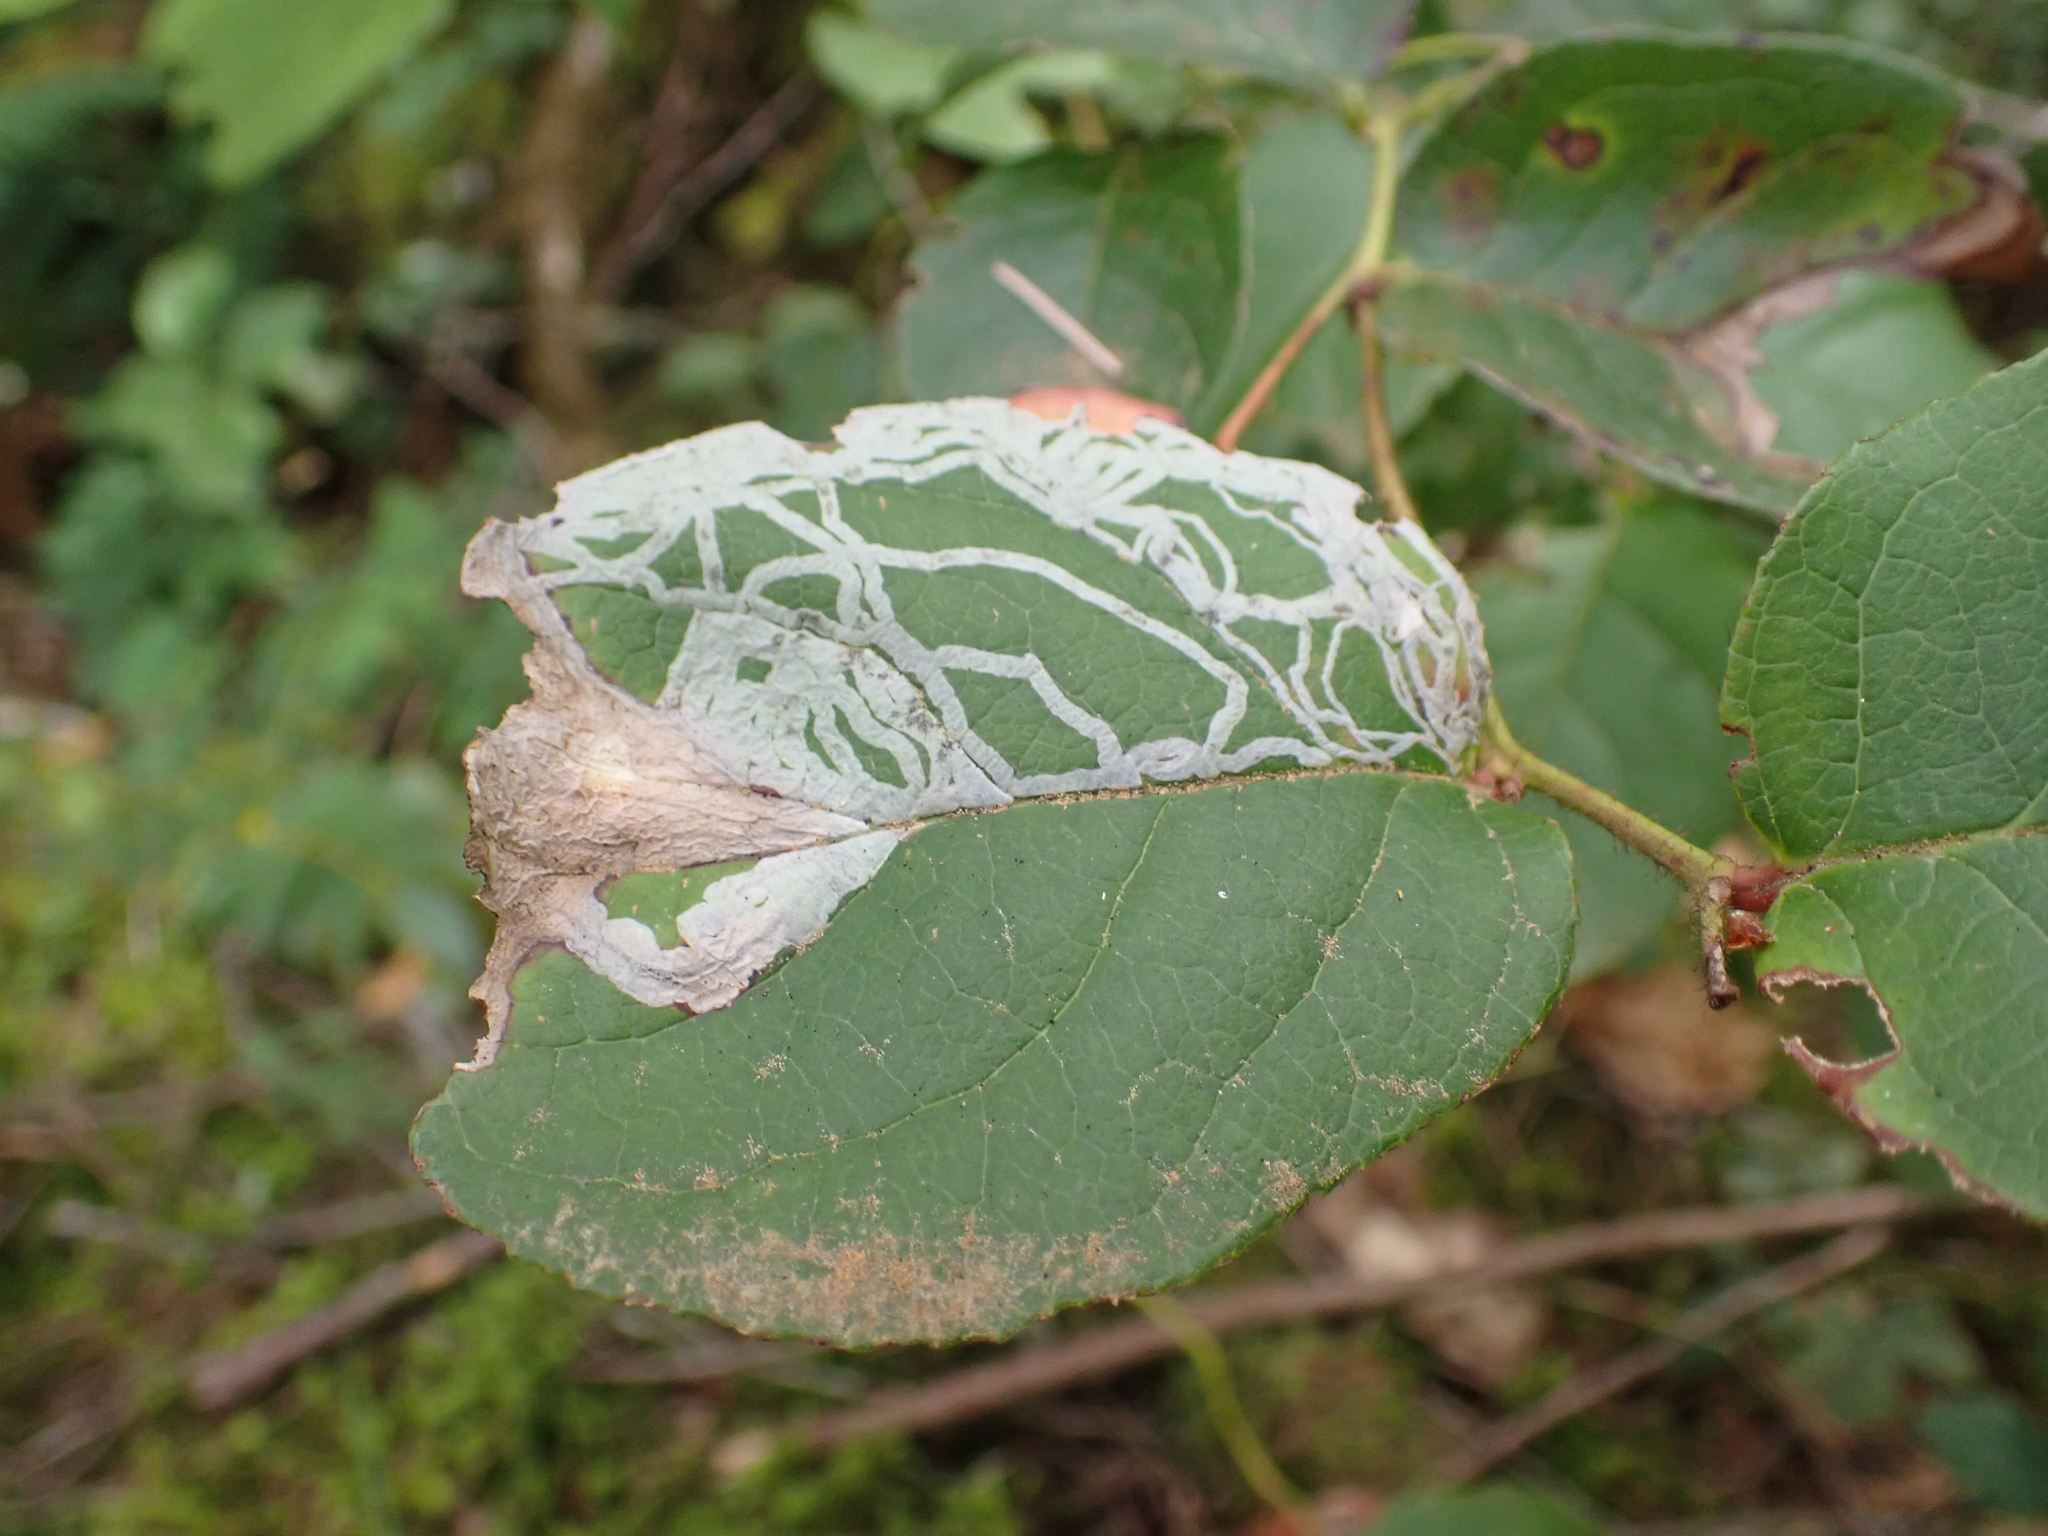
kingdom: Animalia
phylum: Arthropoda
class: Insecta
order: Lepidoptera
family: Gracillariidae
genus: Marmara
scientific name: Marmara arbutiella
